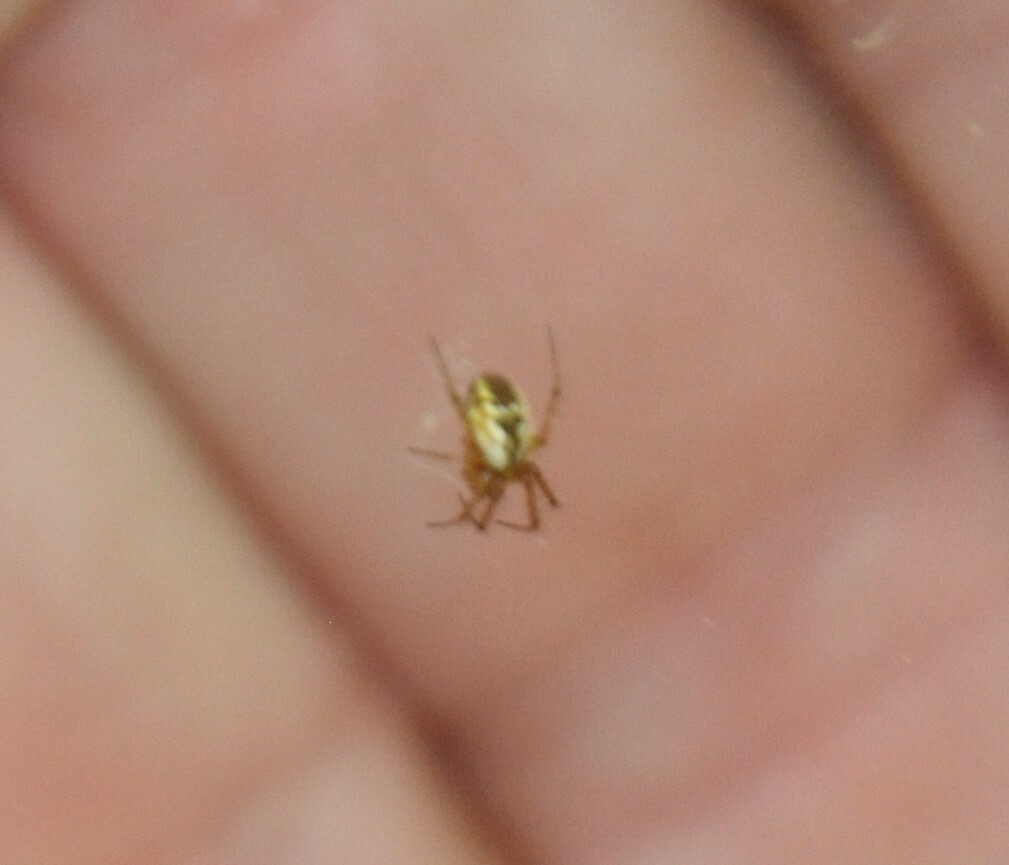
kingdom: Animalia
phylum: Arthropoda
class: Arachnida
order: Araneae
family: Araneidae
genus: Mangora
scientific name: Mangora placida
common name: Tuft-legged orbweaver
